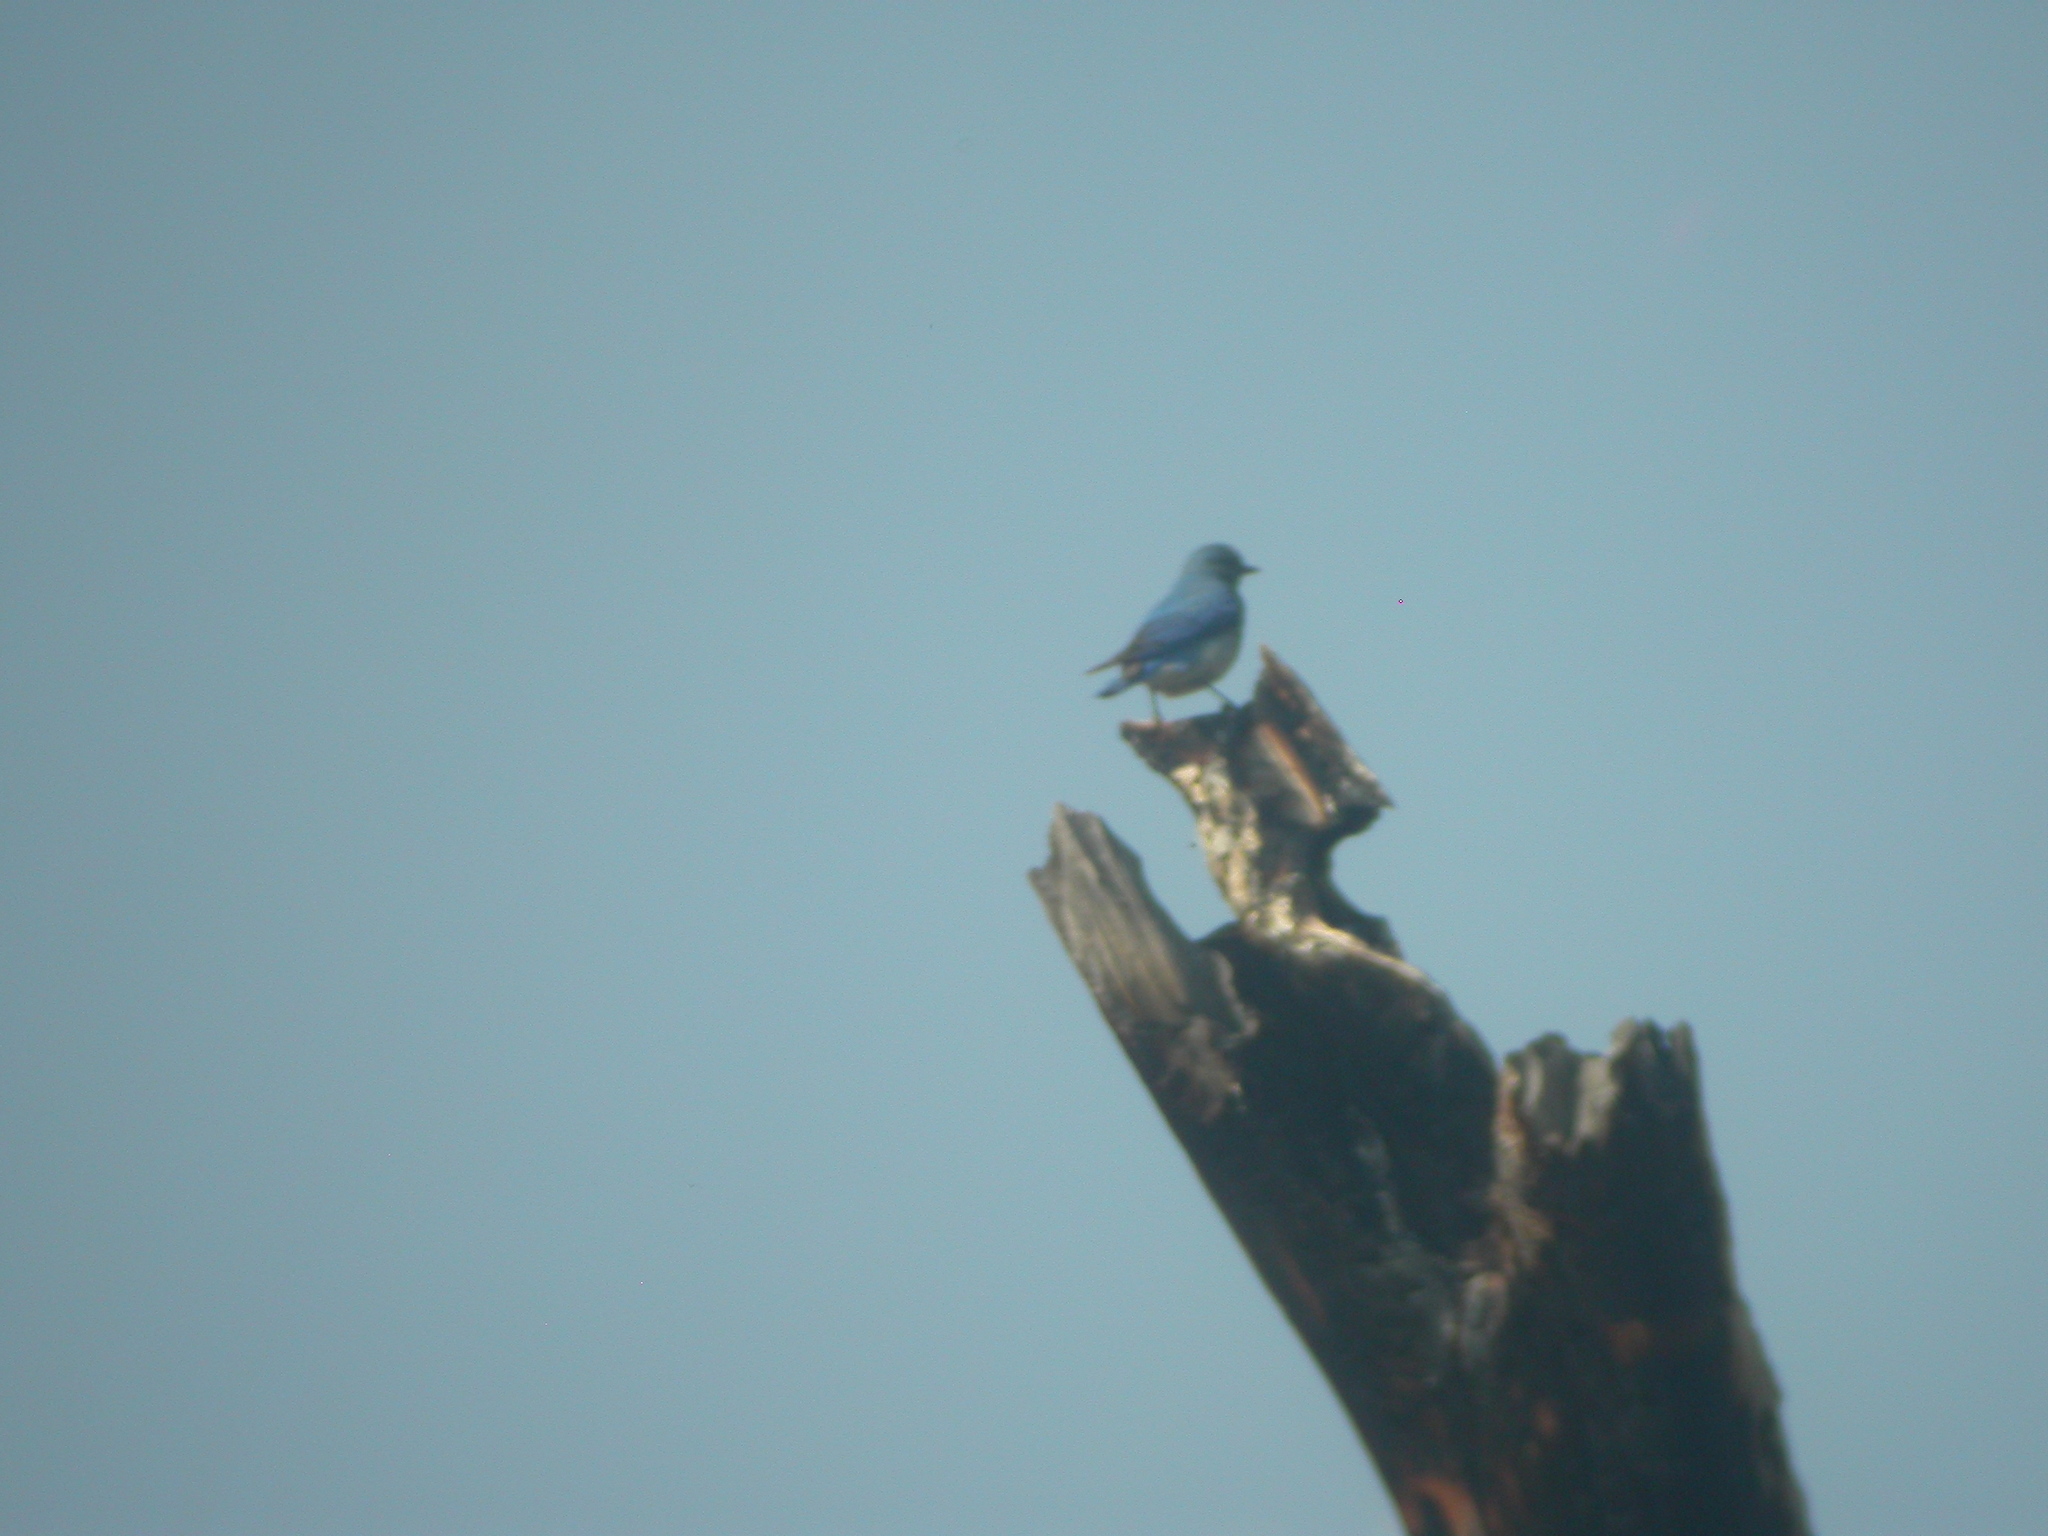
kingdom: Animalia
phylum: Chordata
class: Aves
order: Passeriformes
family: Turdidae
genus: Sialia
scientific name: Sialia currucoides
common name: Mountain bluebird
